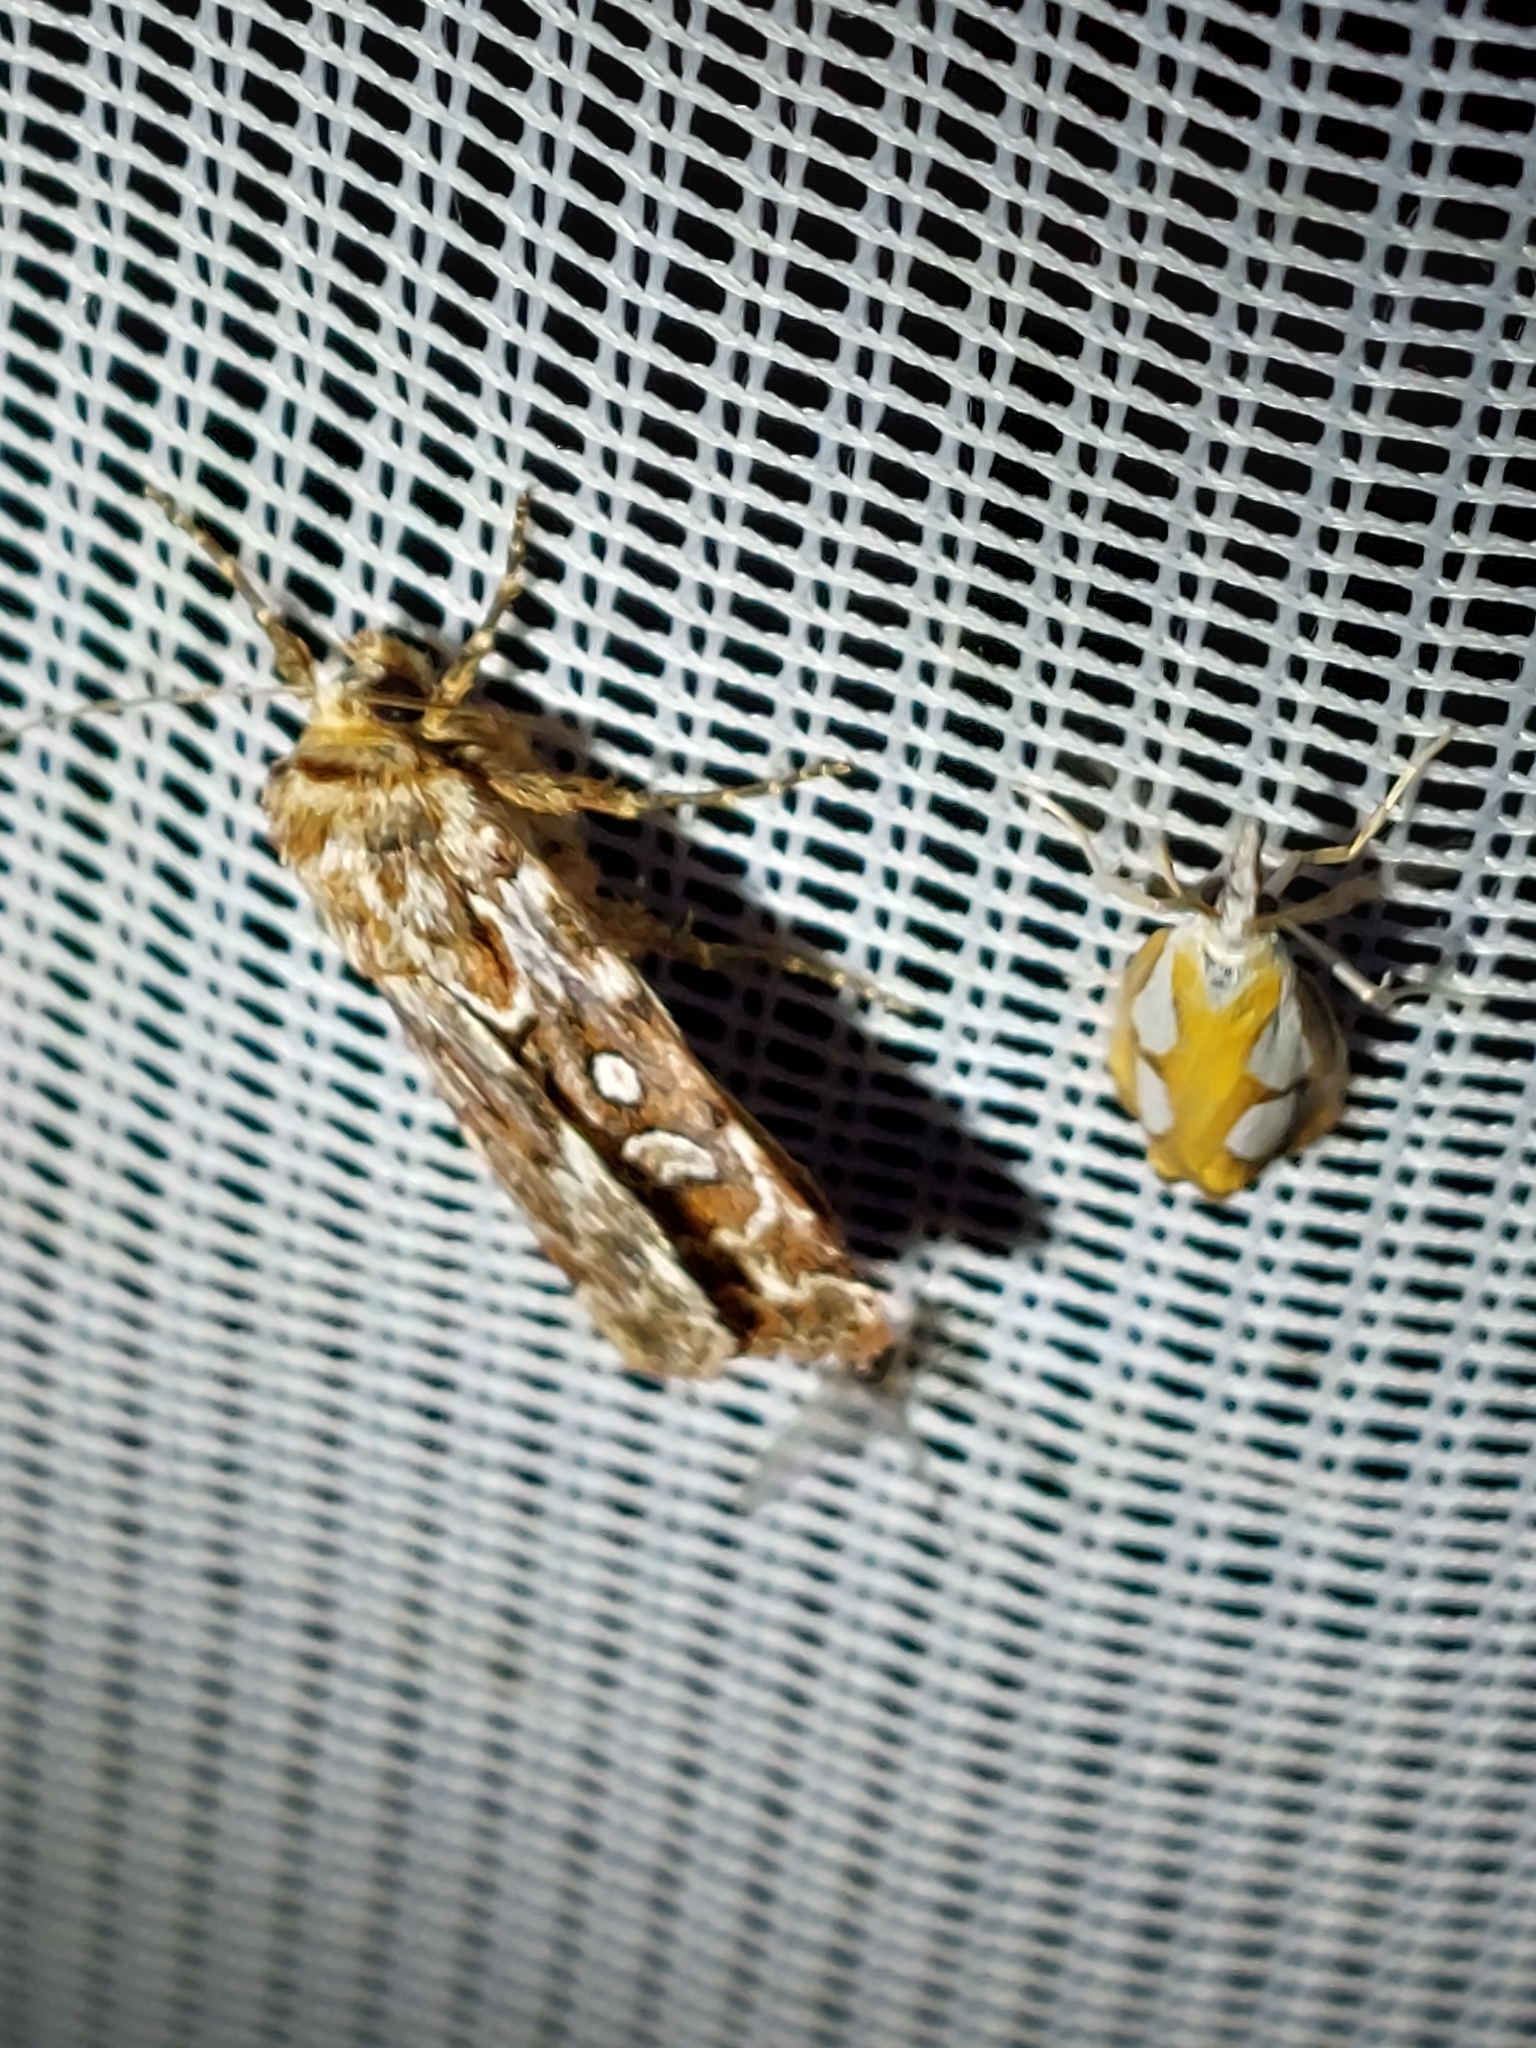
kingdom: Animalia
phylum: Arthropoda
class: Insecta
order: Lepidoptera
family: Noctuidae
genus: Lycophotia
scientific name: Lycophotia porphyrea
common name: True lover's knot
